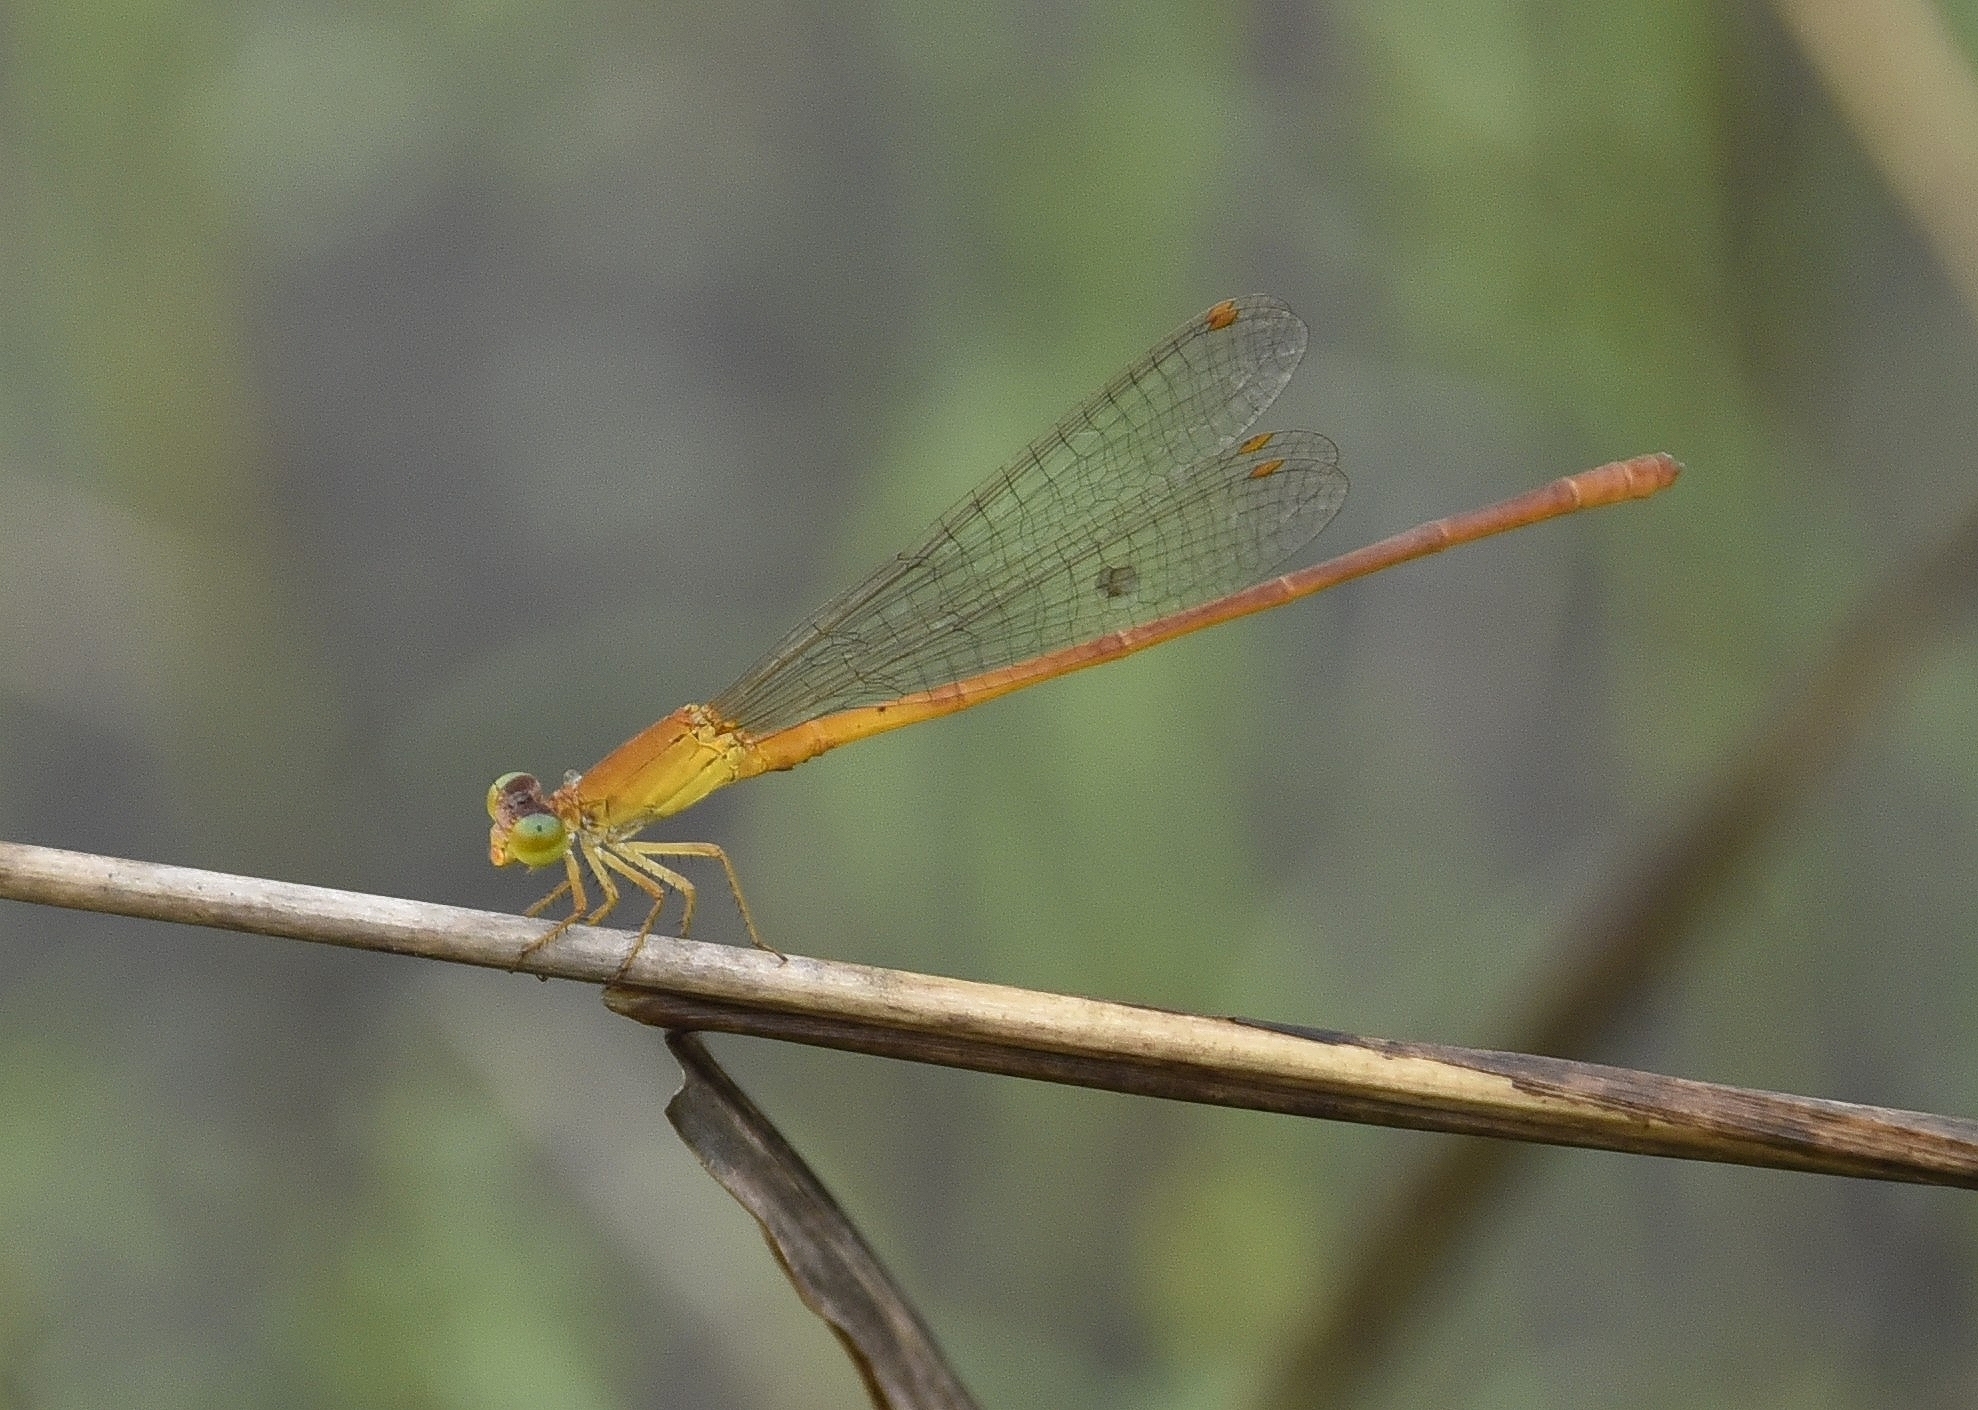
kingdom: Animalia
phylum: Arthropoda
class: Insecta
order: Odonata
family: Coenagrionidae
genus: Ceriagrion
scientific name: Ceriagrion rubiae
